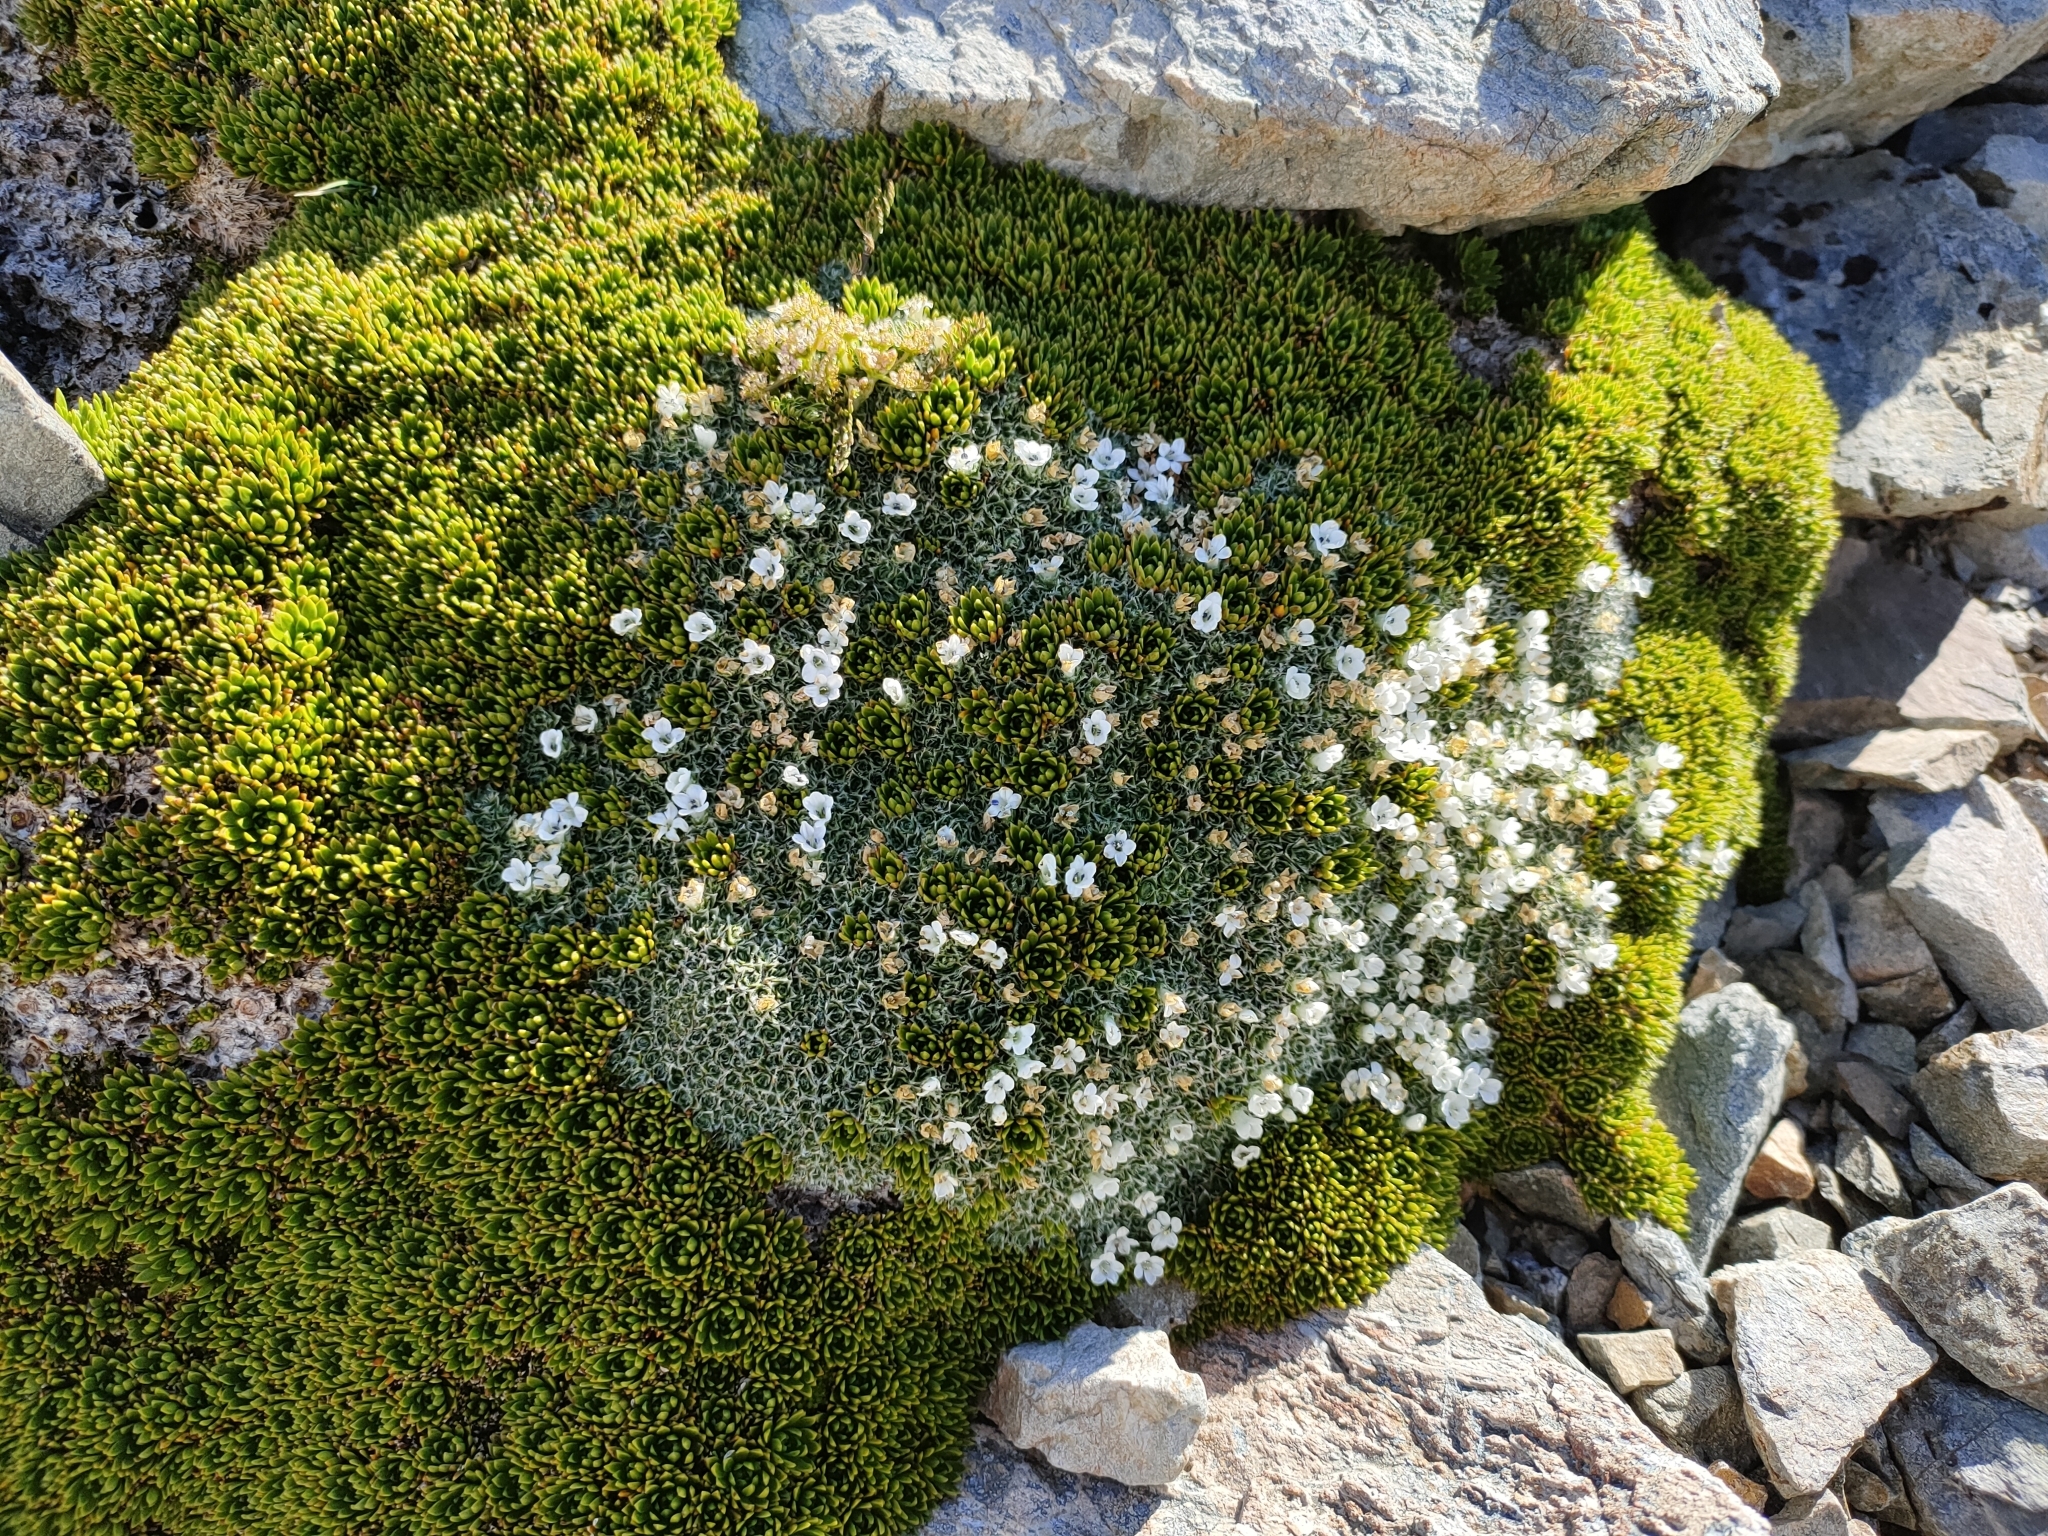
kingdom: Plantae
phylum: Tracheophyta
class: Magnoliopsida
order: Lamiales
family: Plantaginaceae
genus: Veronica
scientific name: Veronica ciliolata
